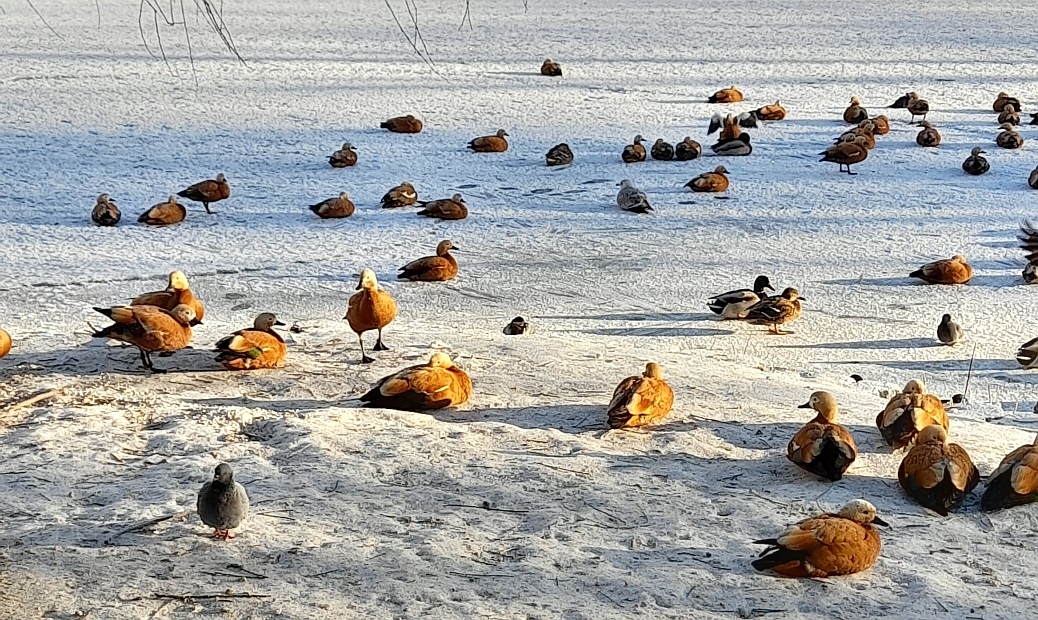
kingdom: Animalia
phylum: Chordata
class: Aves
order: Anseriformes
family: Anatidae
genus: Tadorna
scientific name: Tadorna ferruginea
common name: Ruddy shelduck
